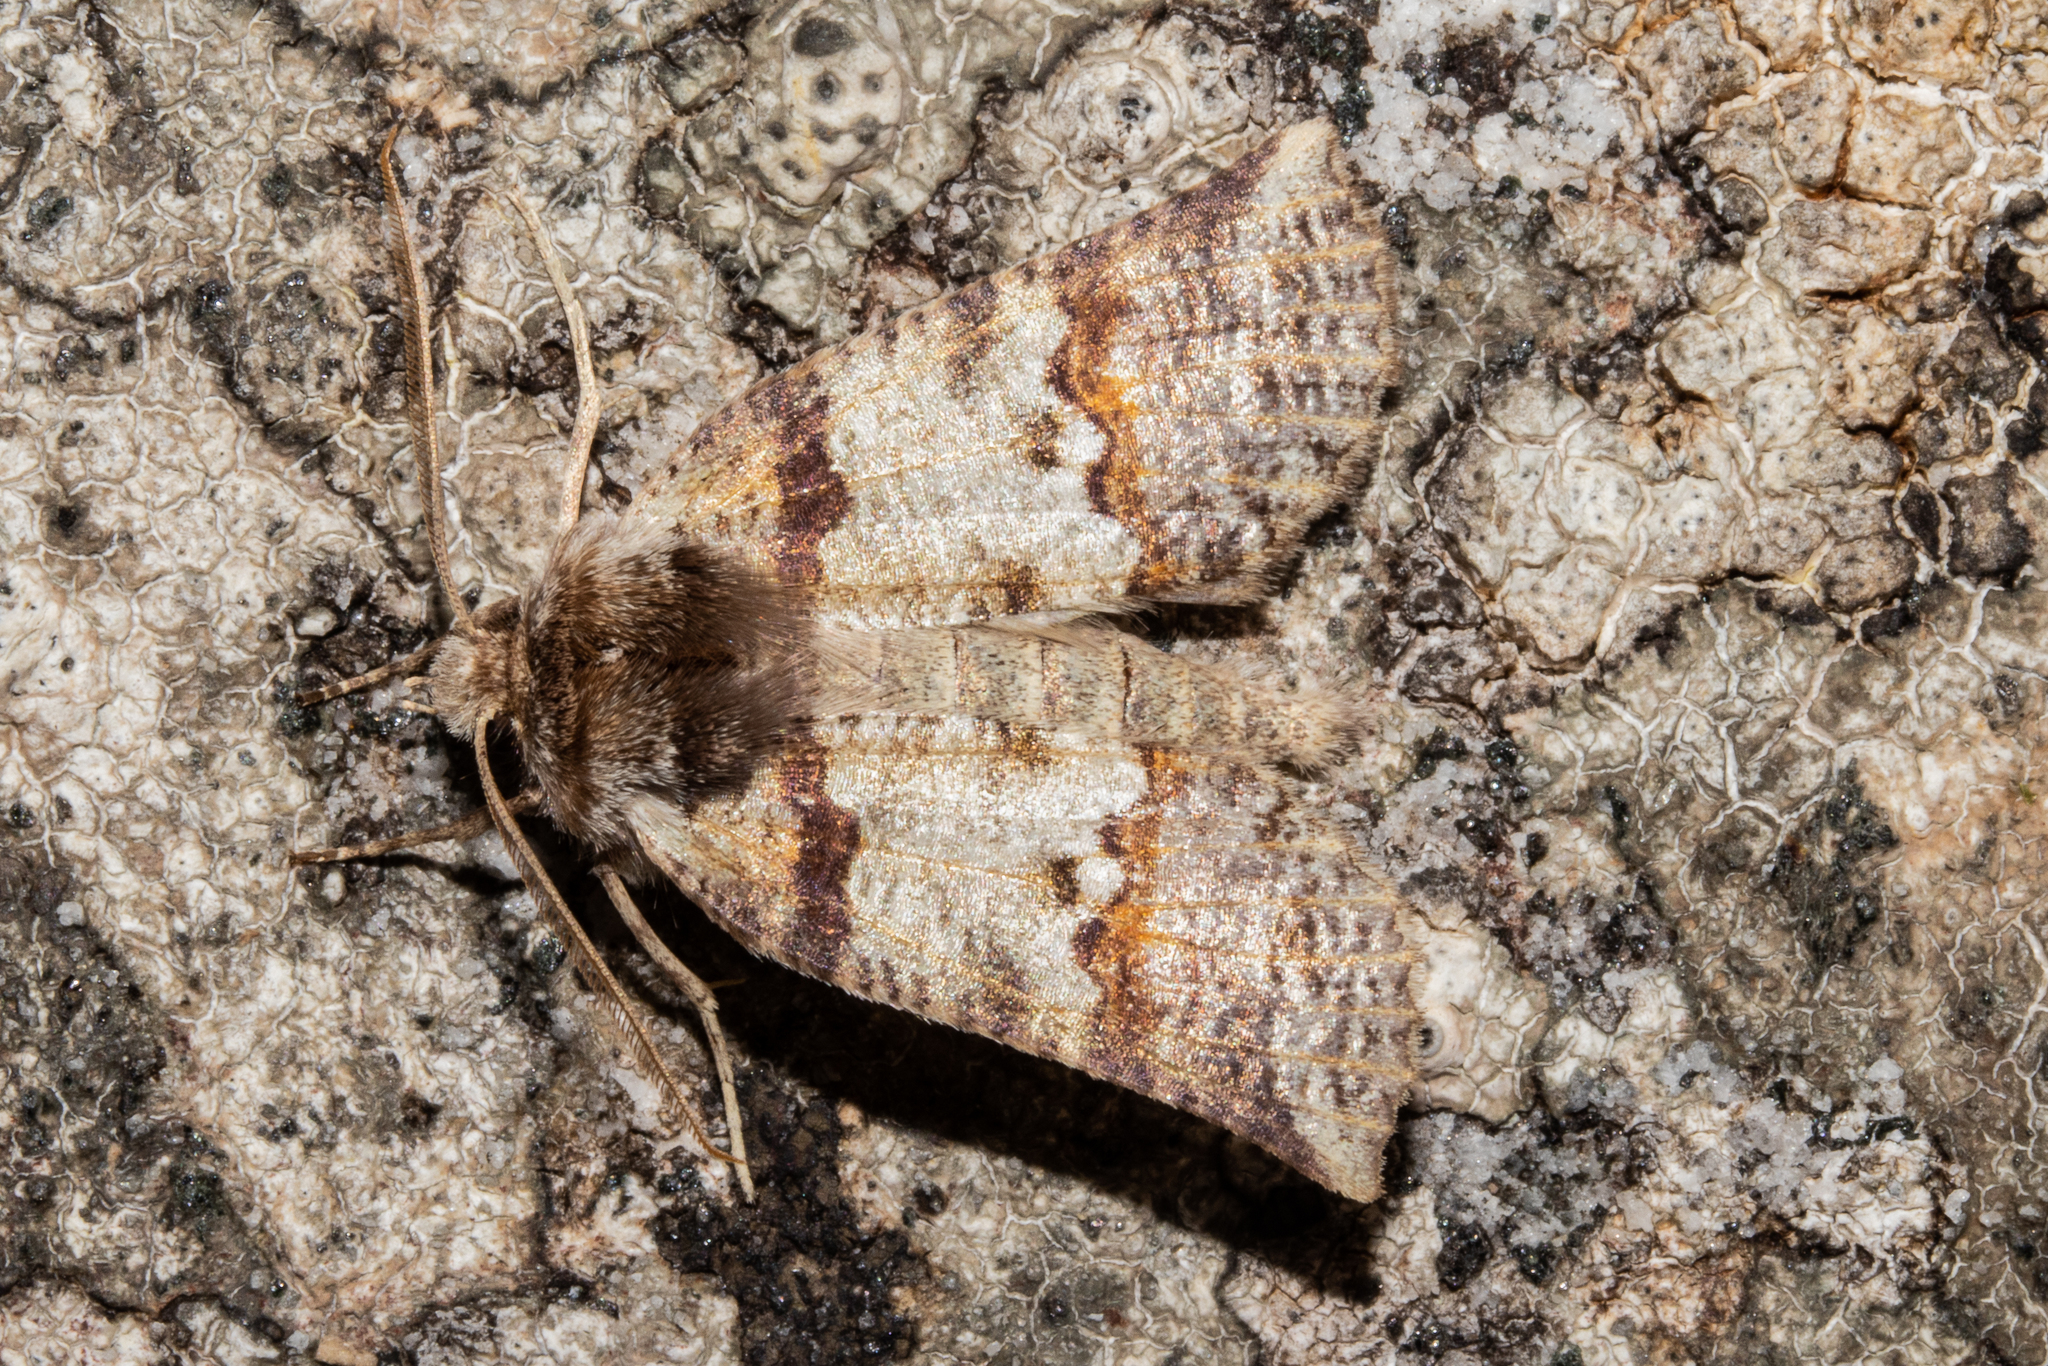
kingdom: Animalia
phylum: Arthropoda
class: Insecta
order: Lepidoptera
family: Geometridae
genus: Declana
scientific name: Declana
